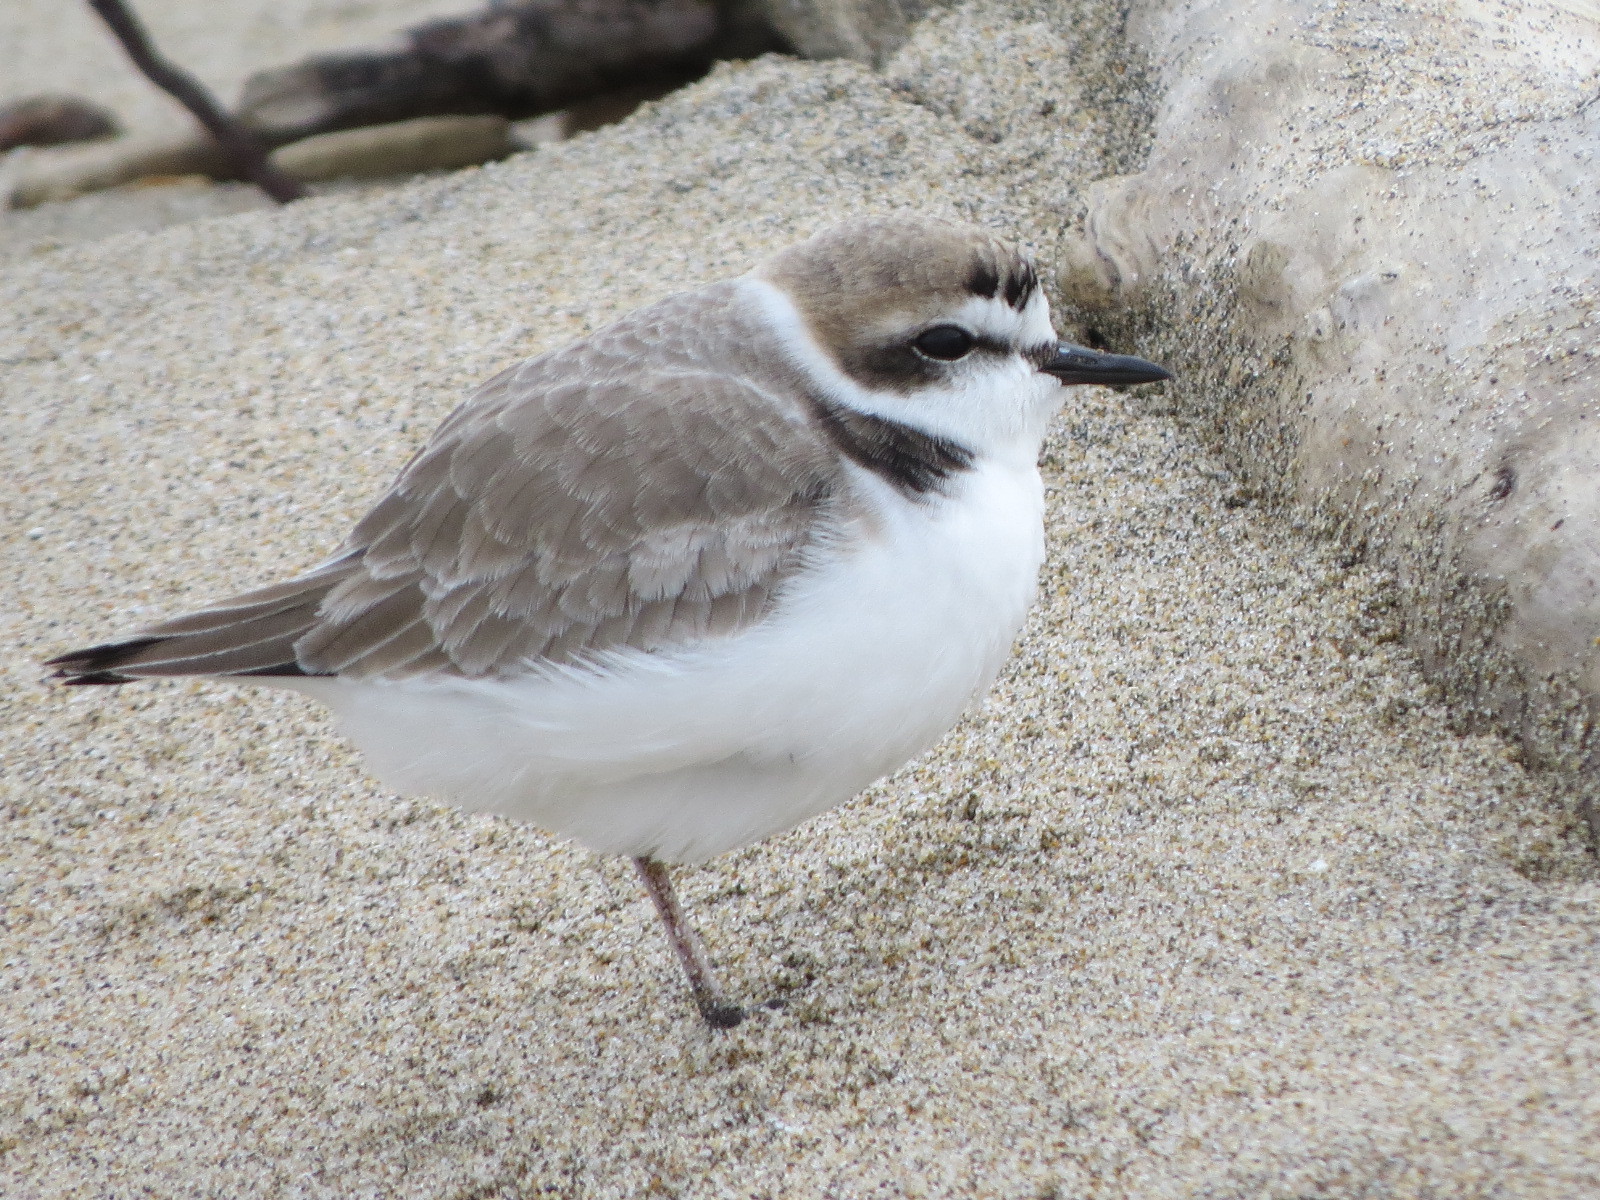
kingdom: Animalia
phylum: Chordata
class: Aves
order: Charadriiformes
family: Charadriidae
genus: Anarhynchus
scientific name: Anarhynchus
